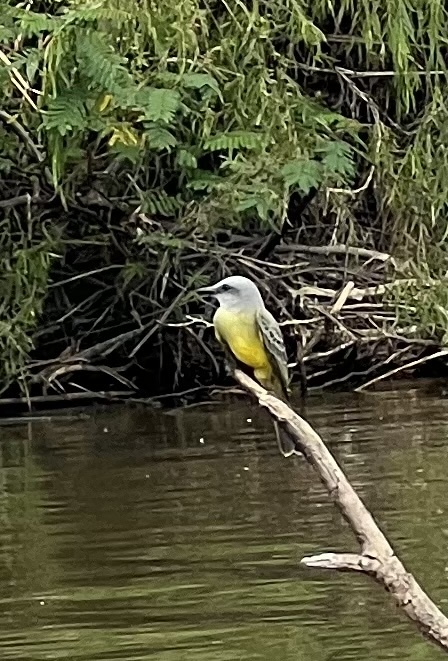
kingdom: Animalia
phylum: Chordata
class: Aves
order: Passeriformes
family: Tyrannidae
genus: Tyrannus
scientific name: Tyrannus melancholicus
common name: Tropical kingbird
